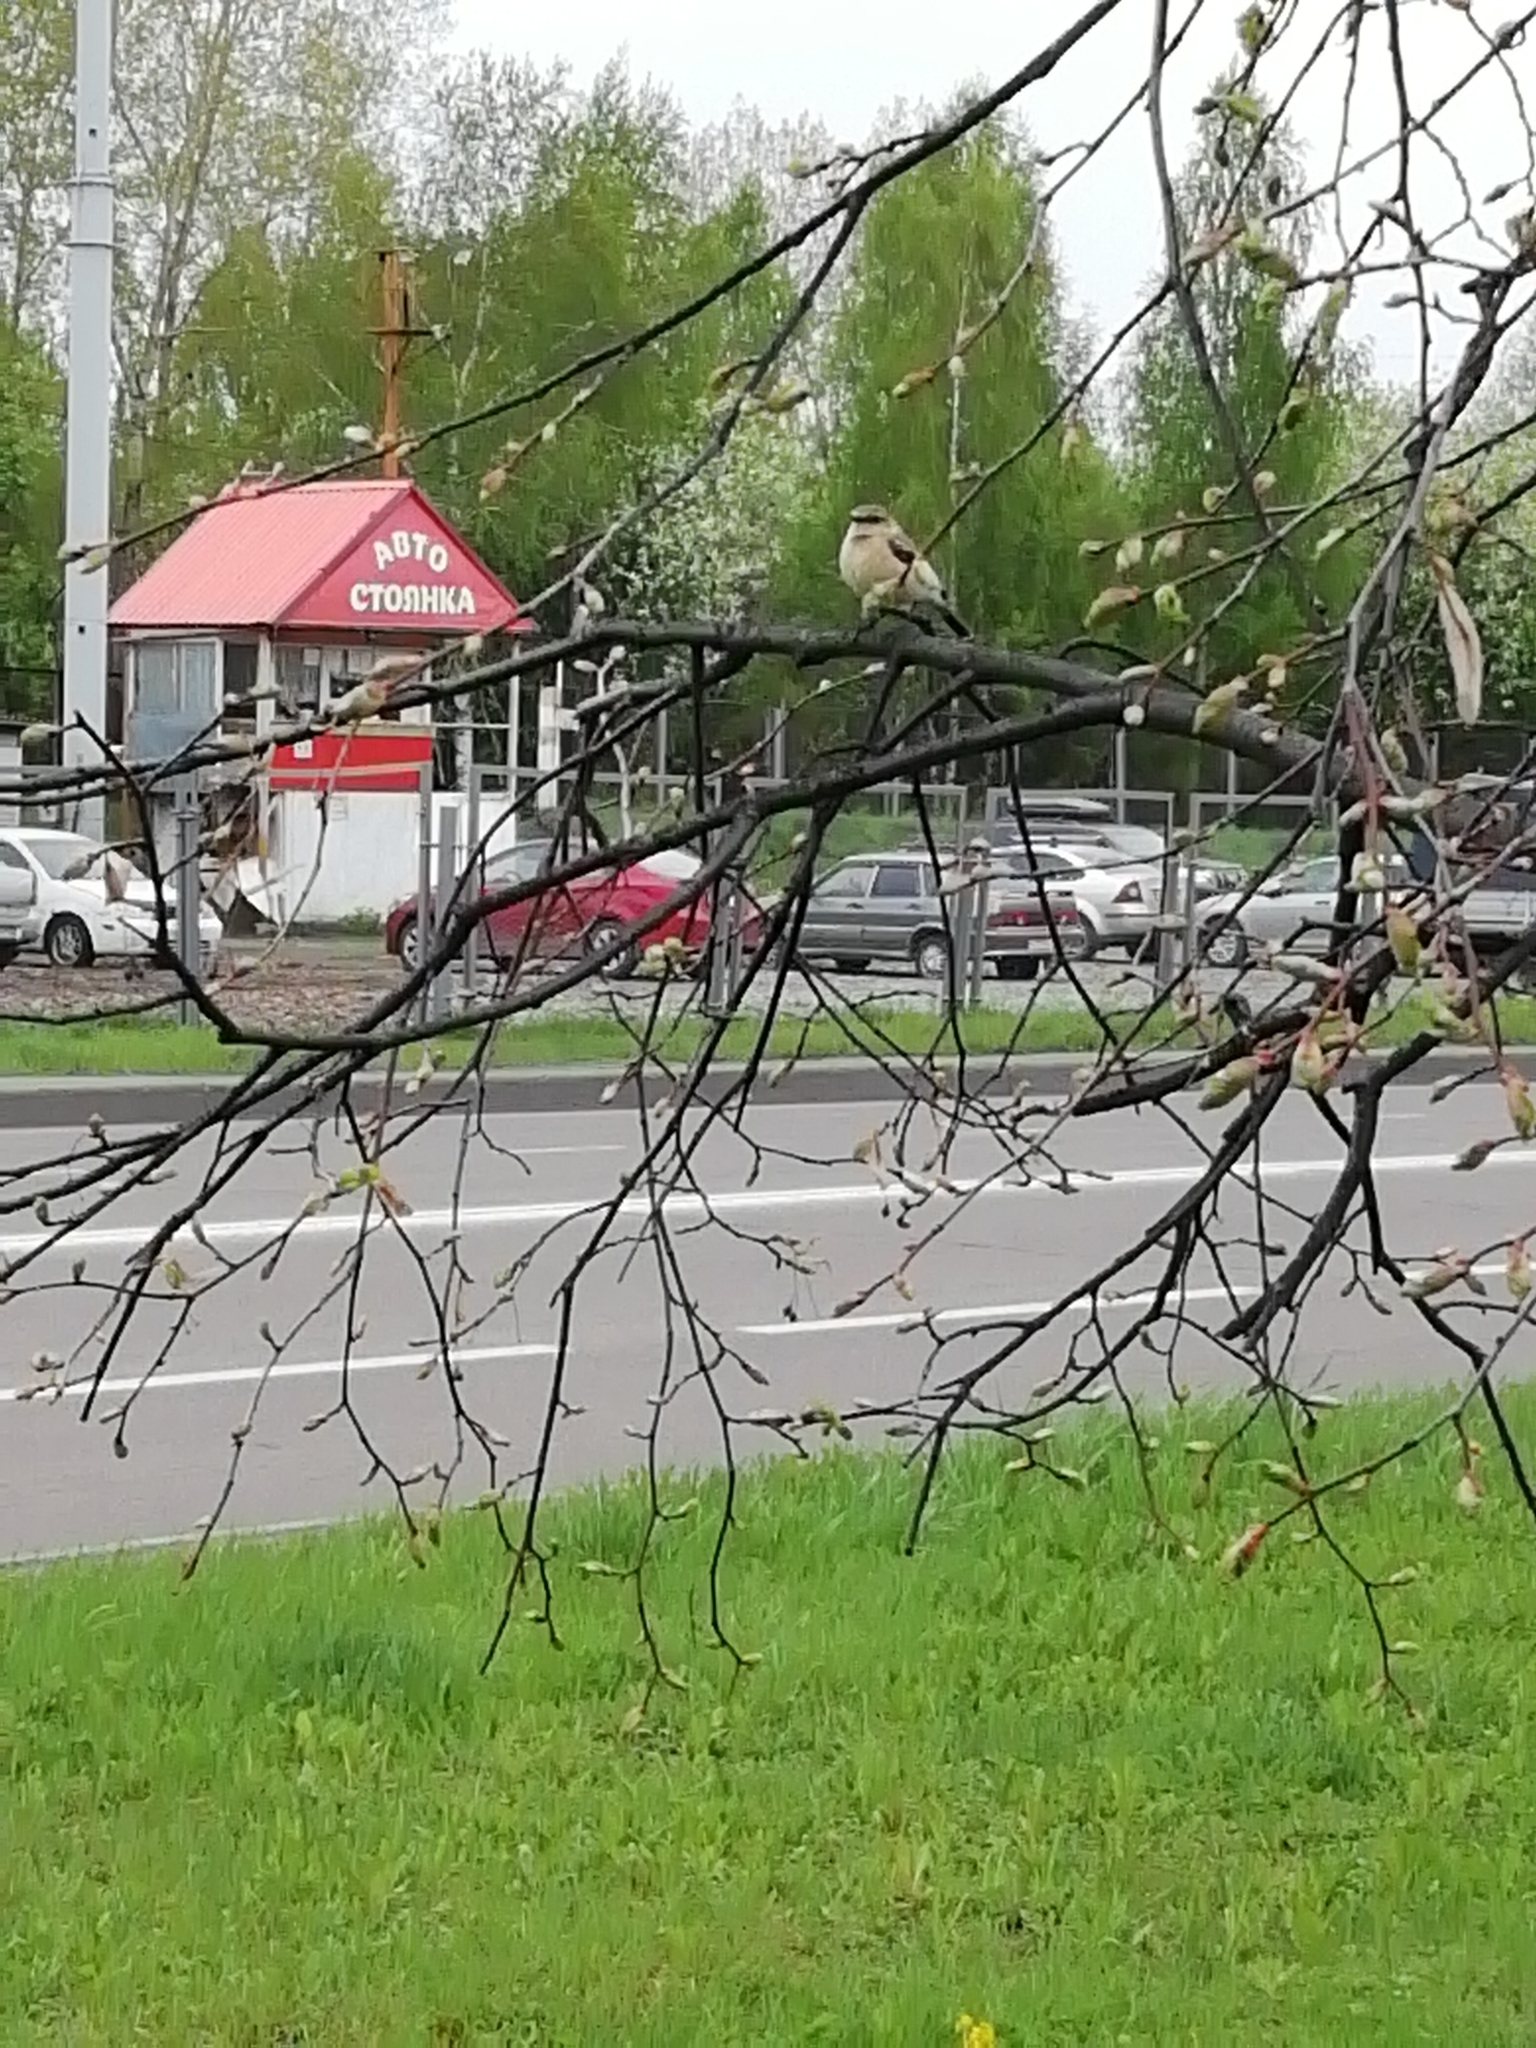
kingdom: Animalia
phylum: Chordata
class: Aves
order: Passeriformes
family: Muscicapidae
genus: Saxicola
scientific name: Saxicola maurus
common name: Siberian stonechat
